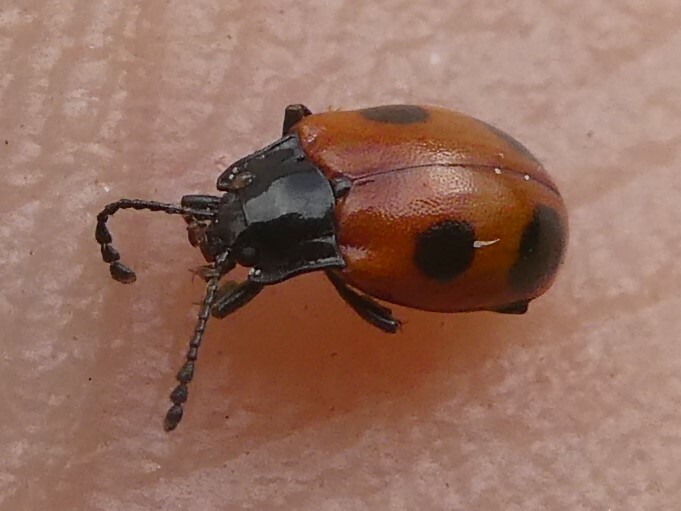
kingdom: Animalia
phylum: Arthropoda
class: Insecta
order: Coleoptera
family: Endomychidae
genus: Endomychus
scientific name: Endomychus biguttatus
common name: Handsome fungus beetle
